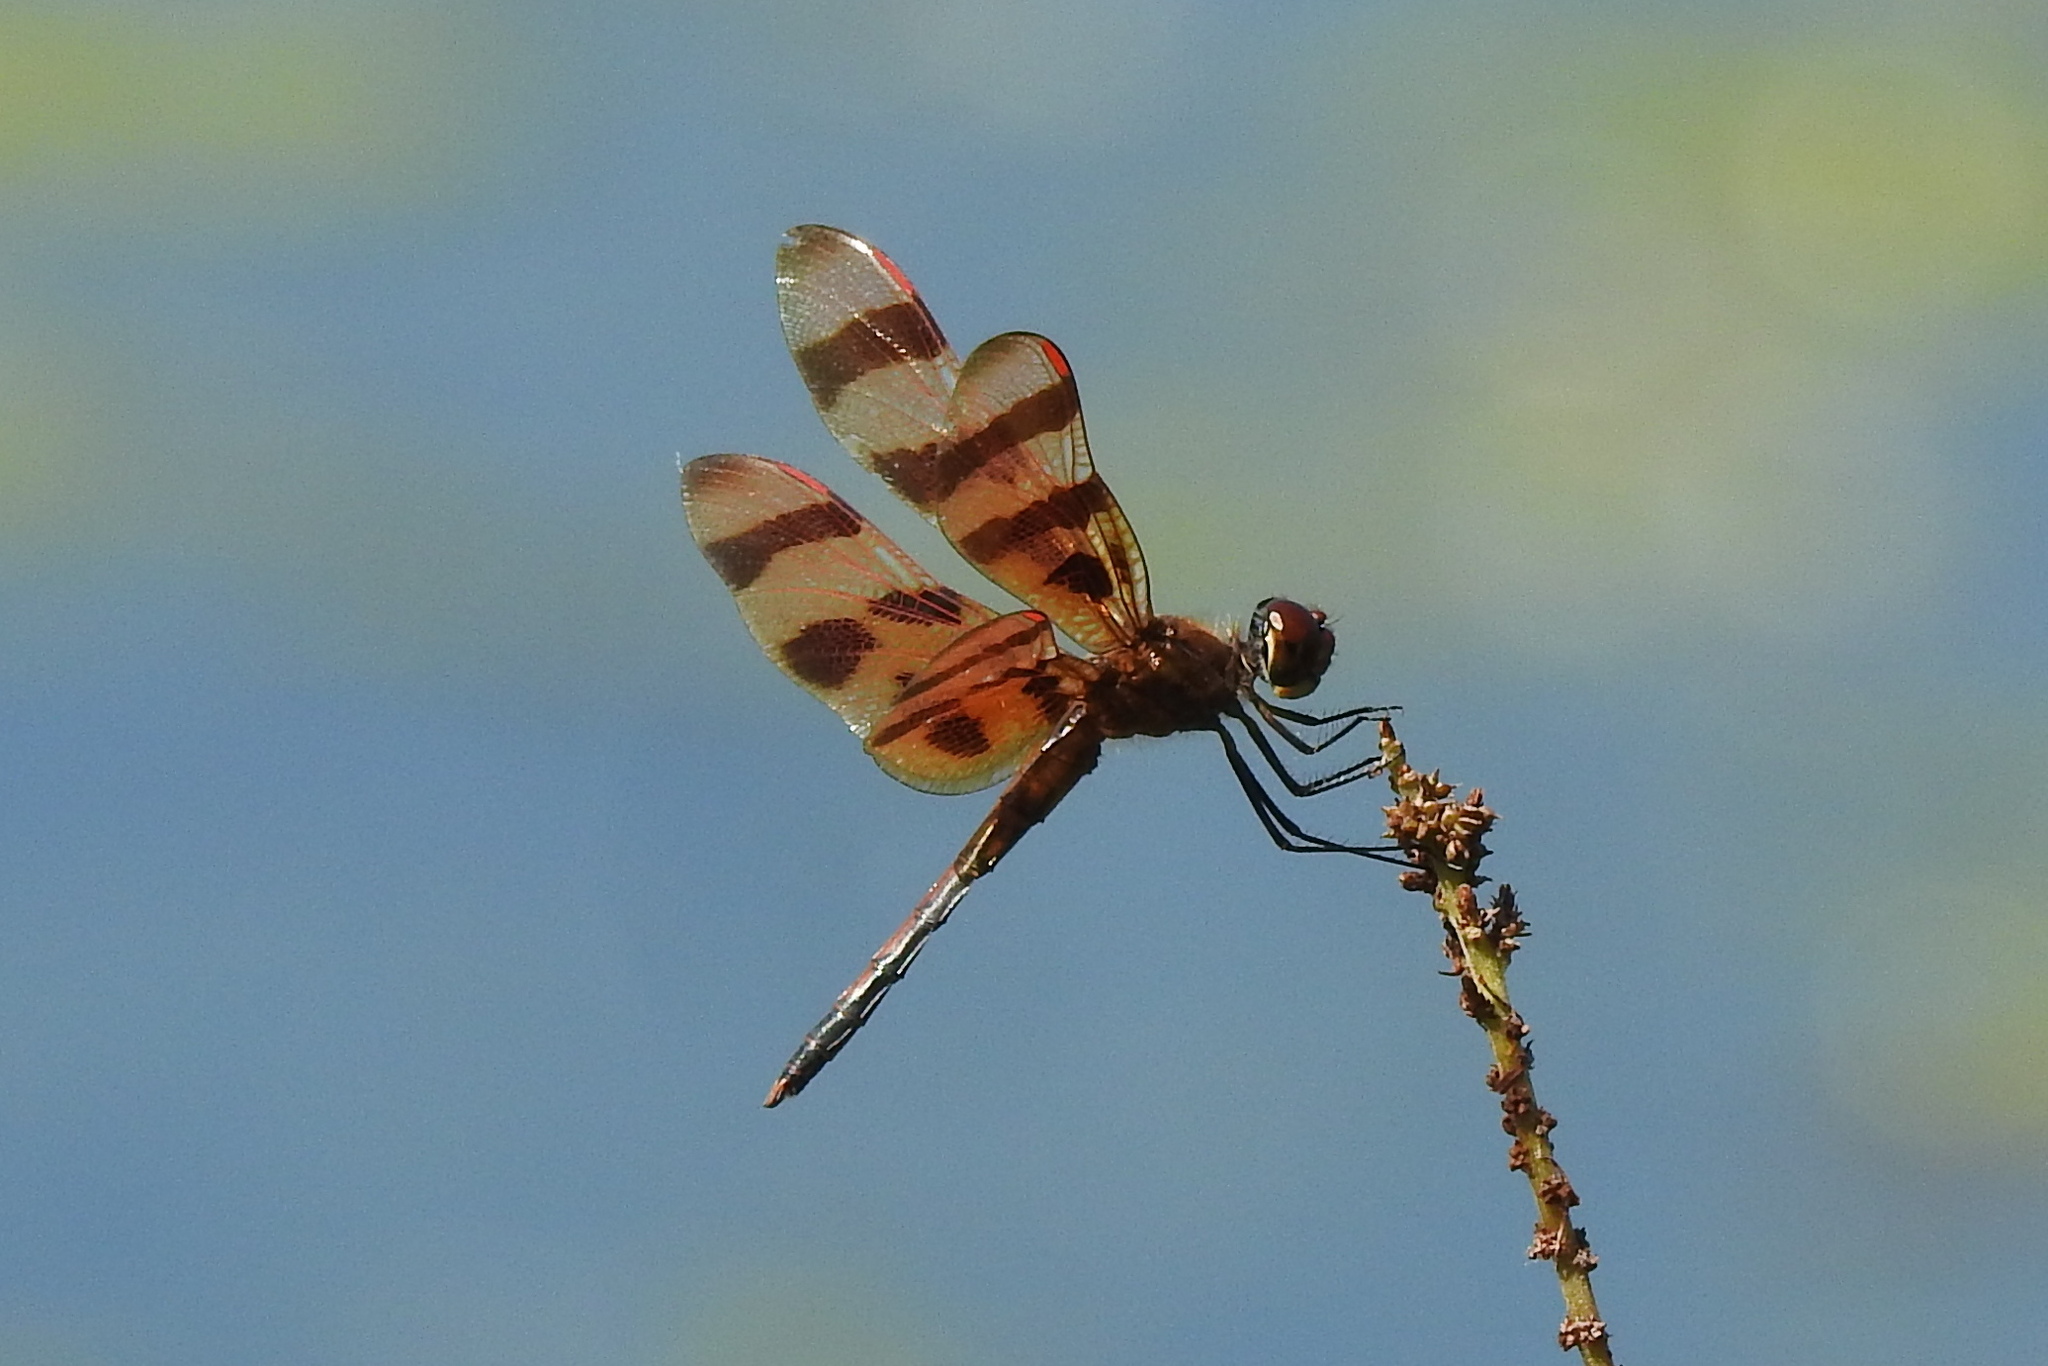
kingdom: Animalia
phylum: Arthropoda
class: Insecta
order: Odonata
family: Libellulidae
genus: Celithemis
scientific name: Celithemis eponina
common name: Halloween pennant
